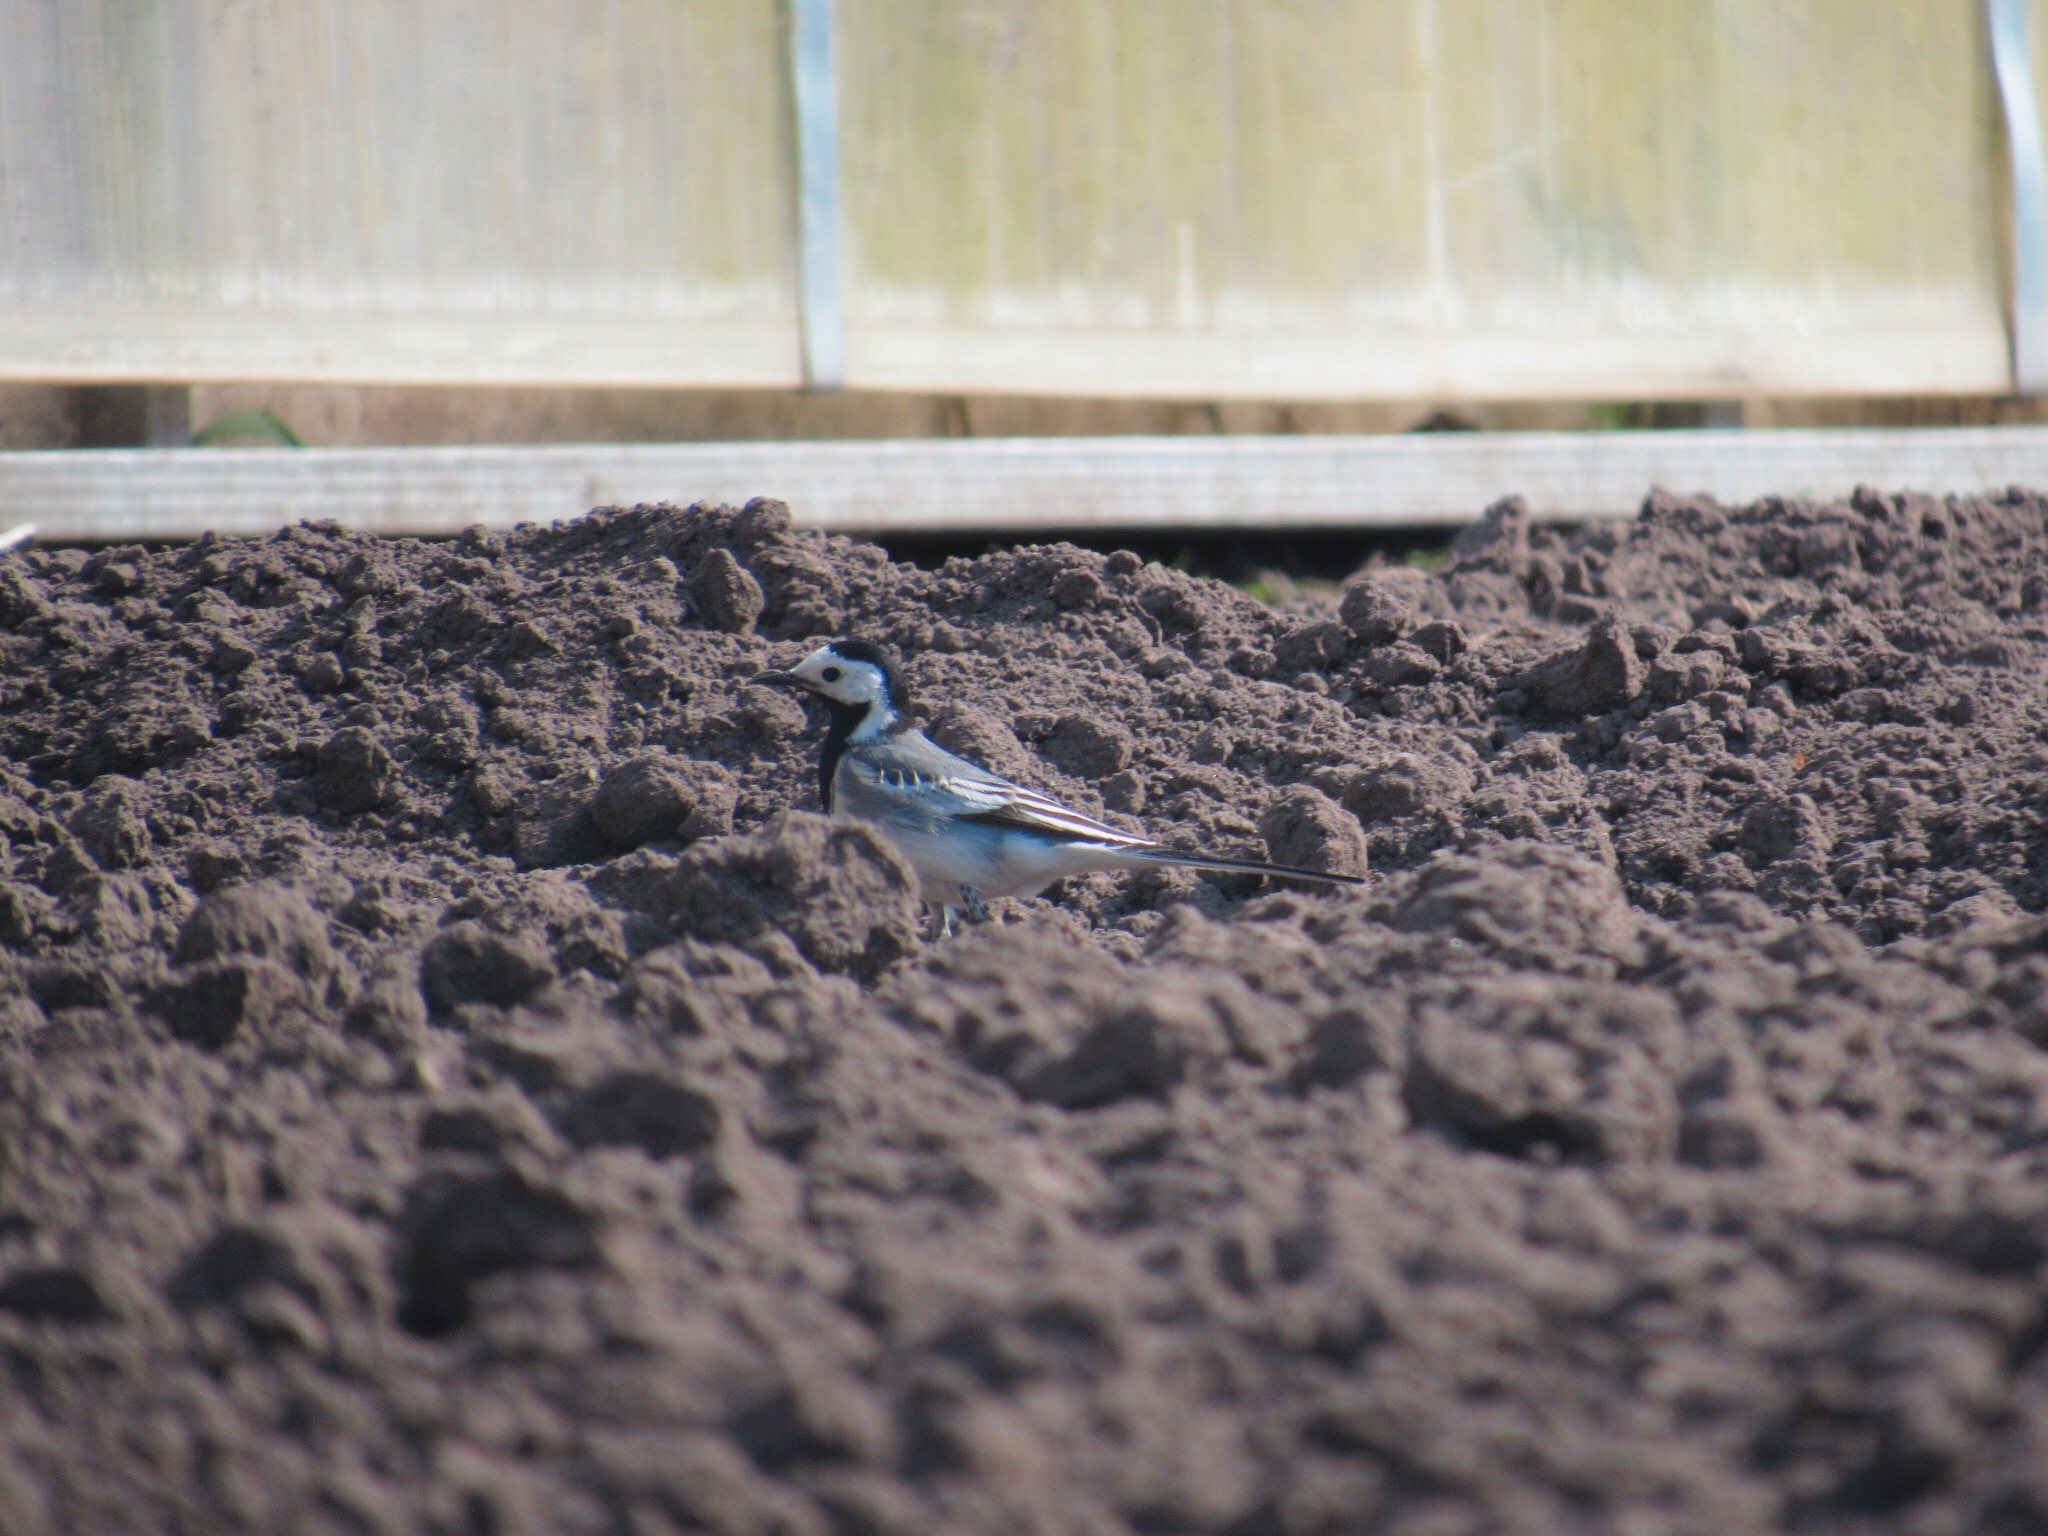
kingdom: Animalia
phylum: Chordata
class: Aves
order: Passeriformes
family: Motacillidae
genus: Motacilla
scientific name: Motacilla alba
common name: White wagtail
